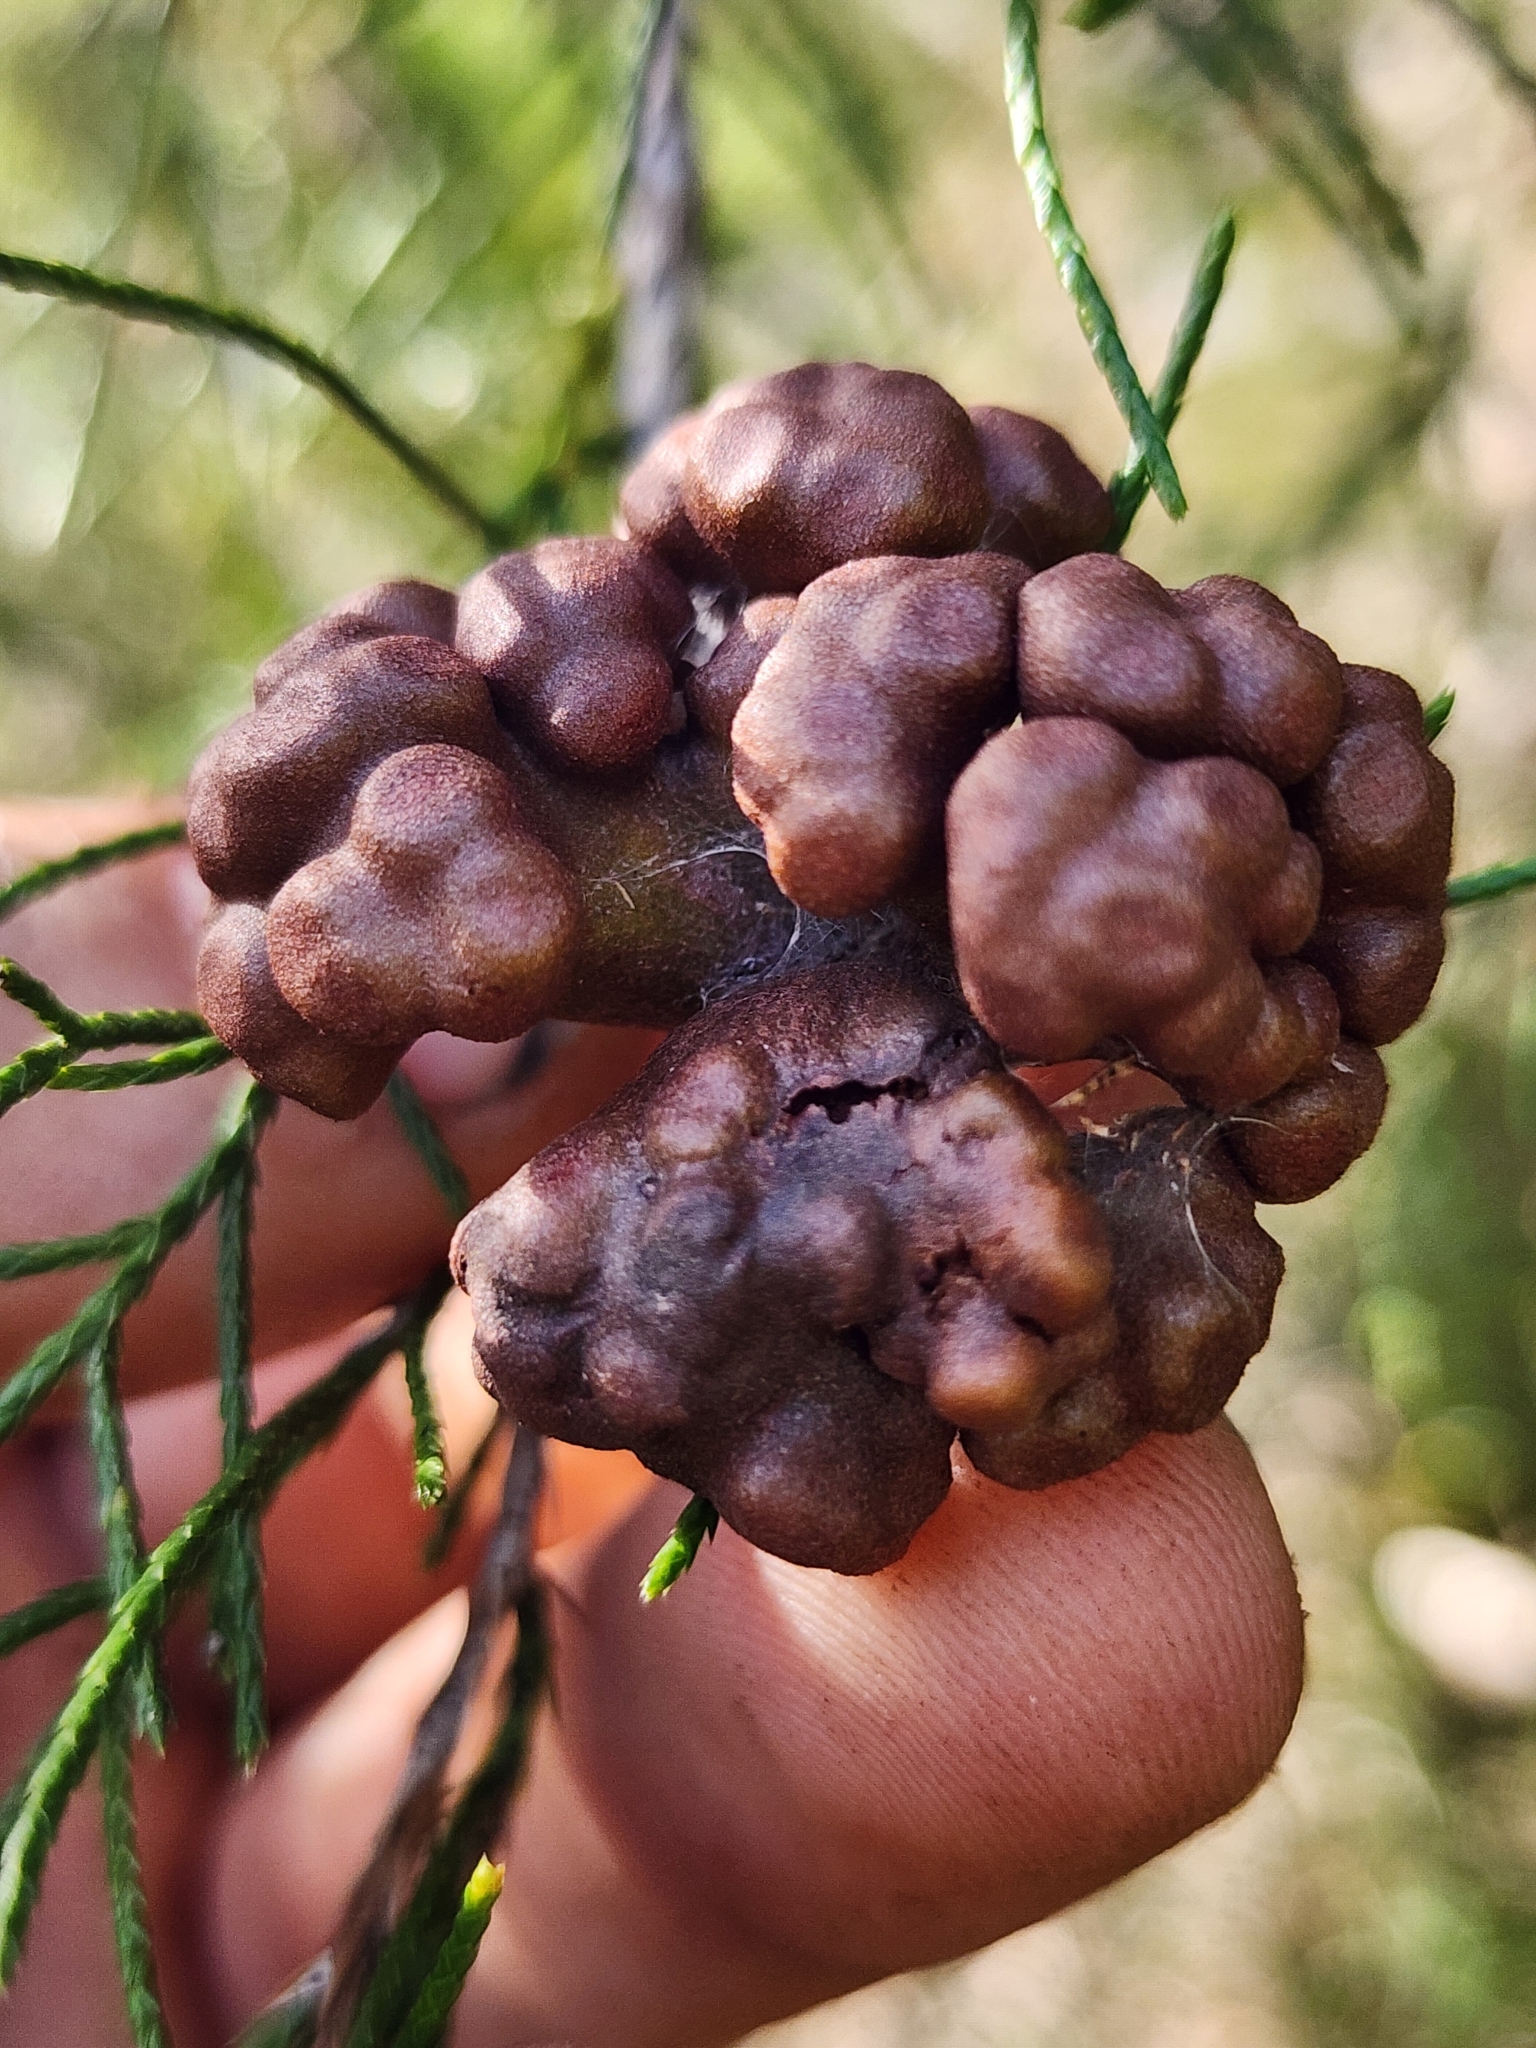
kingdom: Fungi
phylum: Basidiomycota
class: Pucciniomycetes
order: Pucciniales
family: Gymnosporangiaceae
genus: Gymnosporangium
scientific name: Gymnosporangium juniperi-virginianae
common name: Juniper-apple rust
